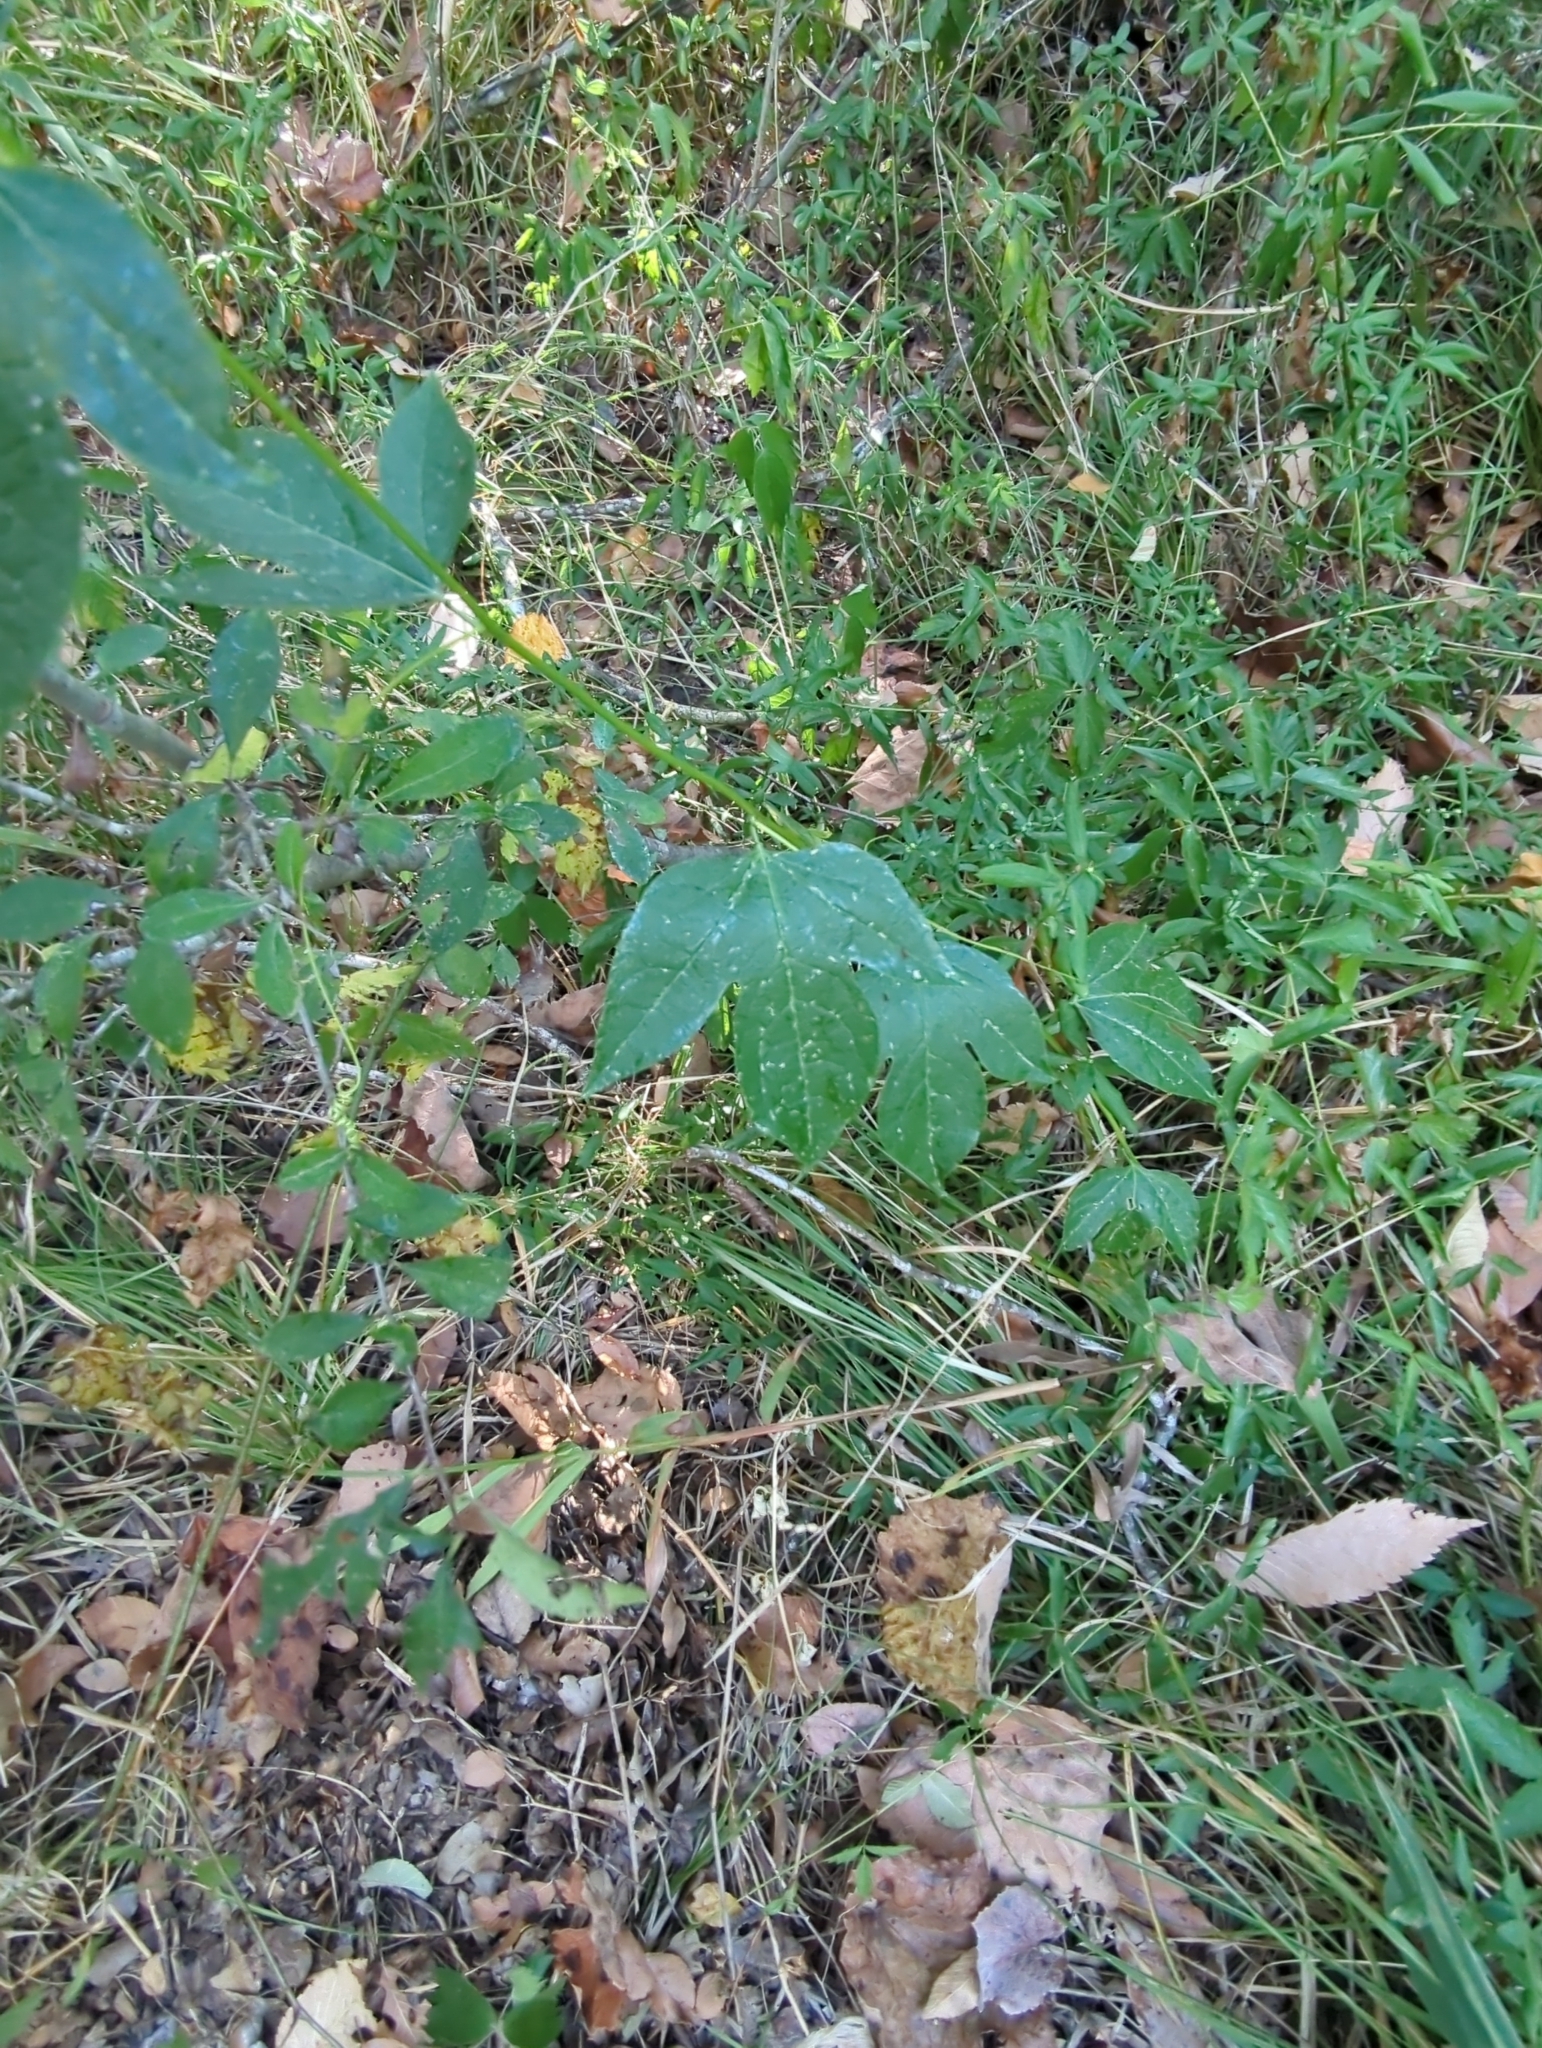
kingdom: Plantae
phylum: Tracheophyta
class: Magnoliopsida
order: Malpighiales
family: Passifloraceae
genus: Passiflora
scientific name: Passiflora incarnata
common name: Apricot-vine
